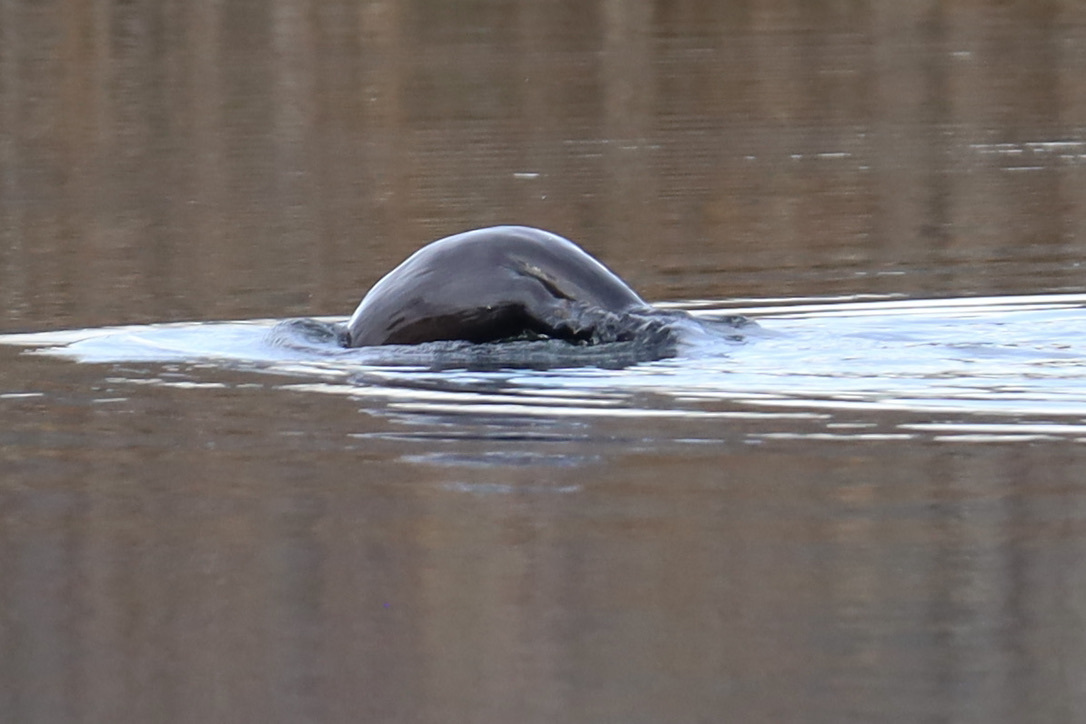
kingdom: Animalia
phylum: Chordata
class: Mammalia
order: Carnivora
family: Mustelidae
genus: Lontra
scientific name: Lontra canadensis
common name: North american river otter
